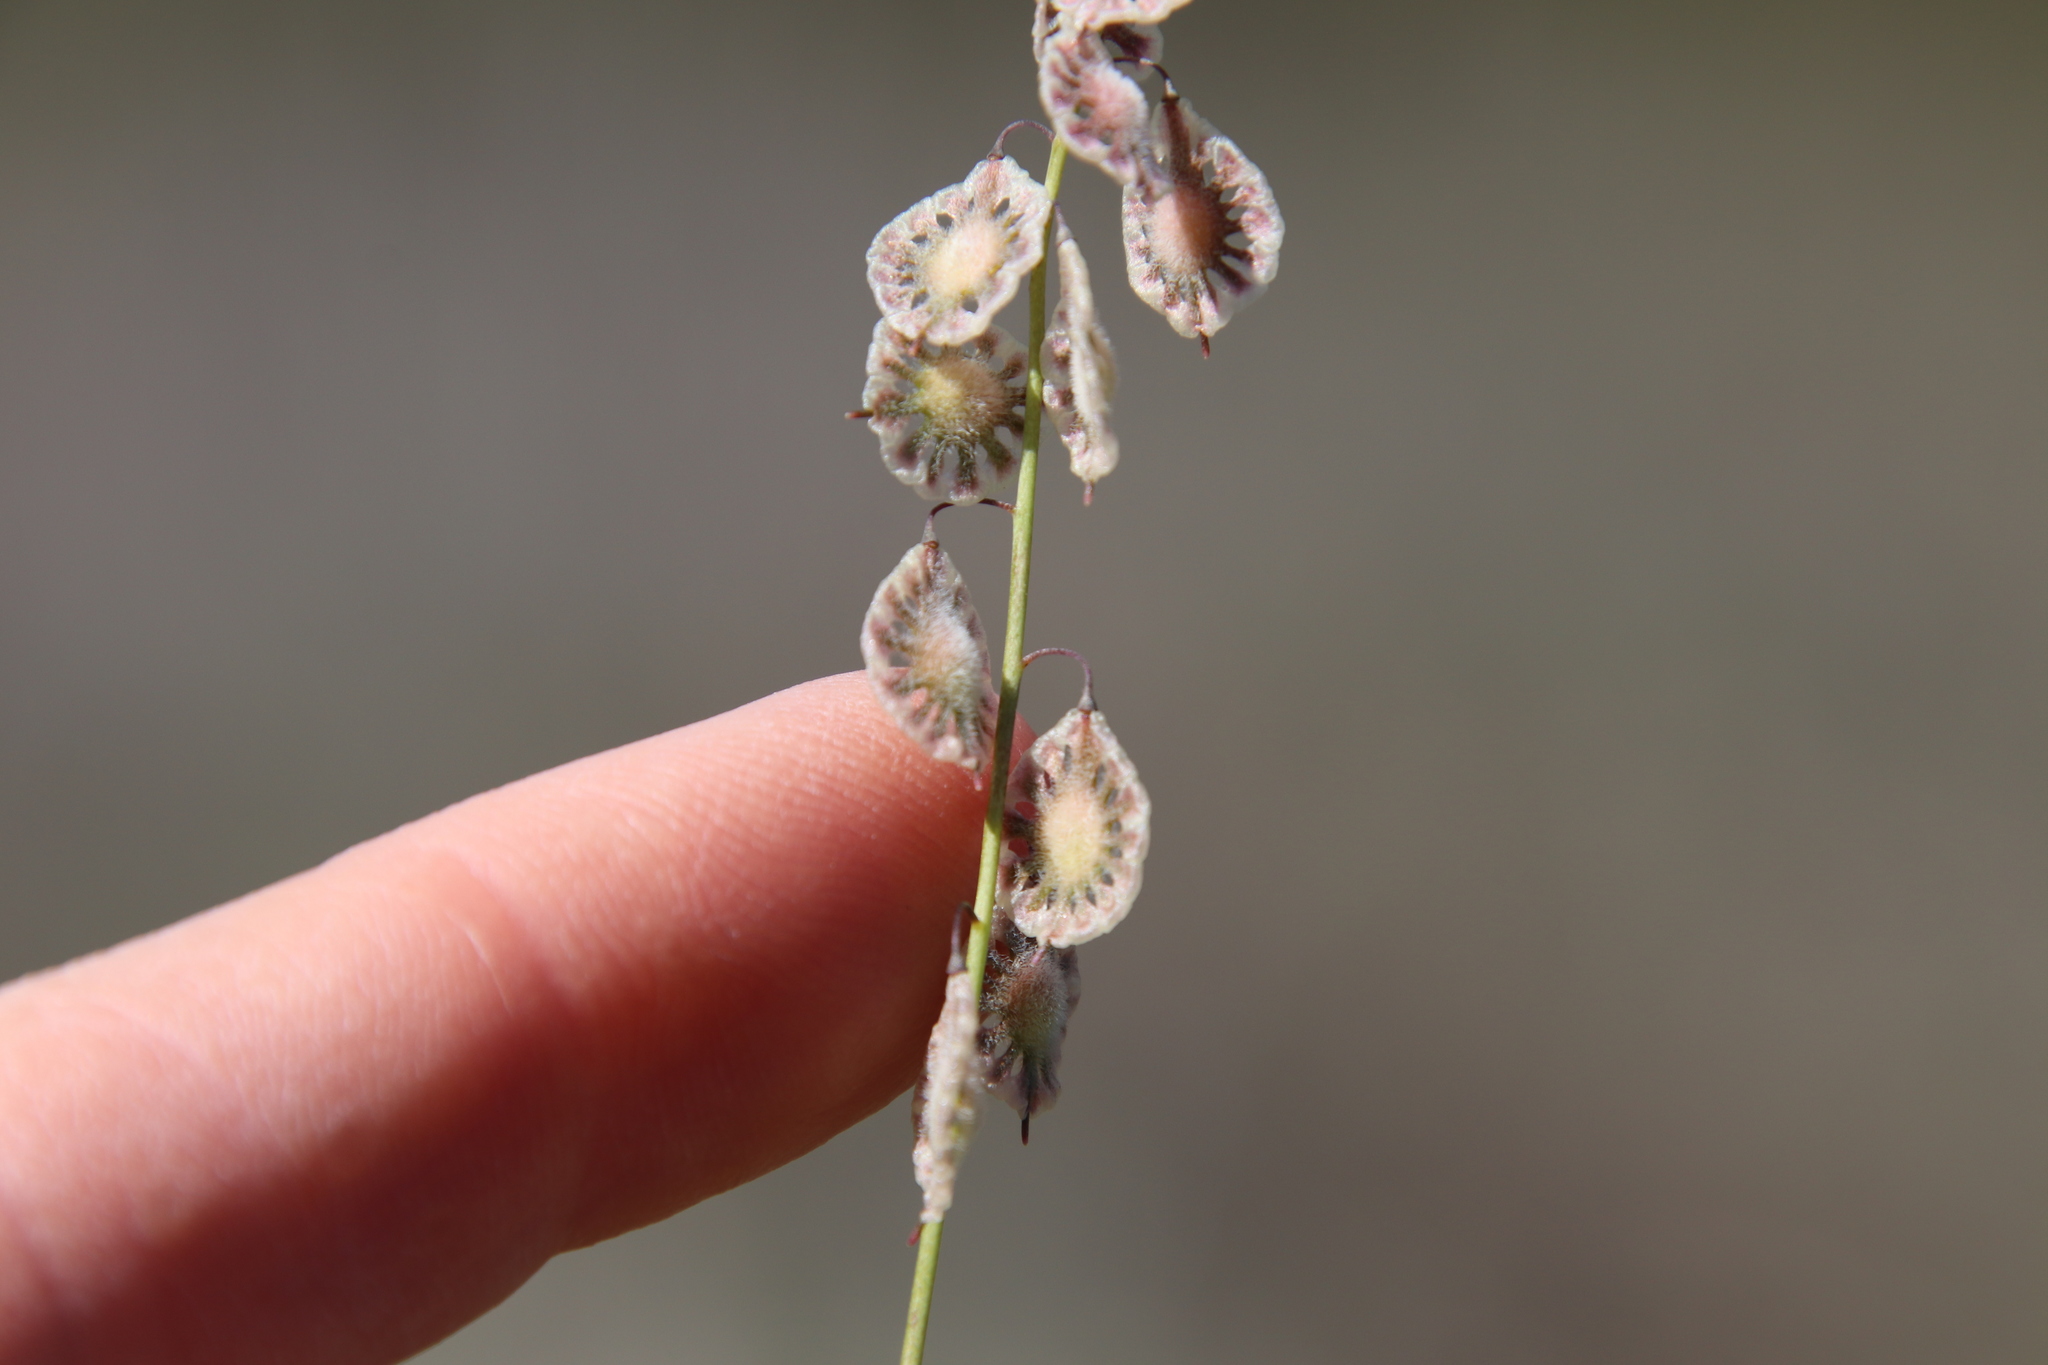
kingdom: Plantae
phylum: Tracheophyta
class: Magnoliopsida
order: Brassicales
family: Brassicaceae
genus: Thysanocarpus
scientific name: Thysanocarpus curvipes
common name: Sand fringepod
